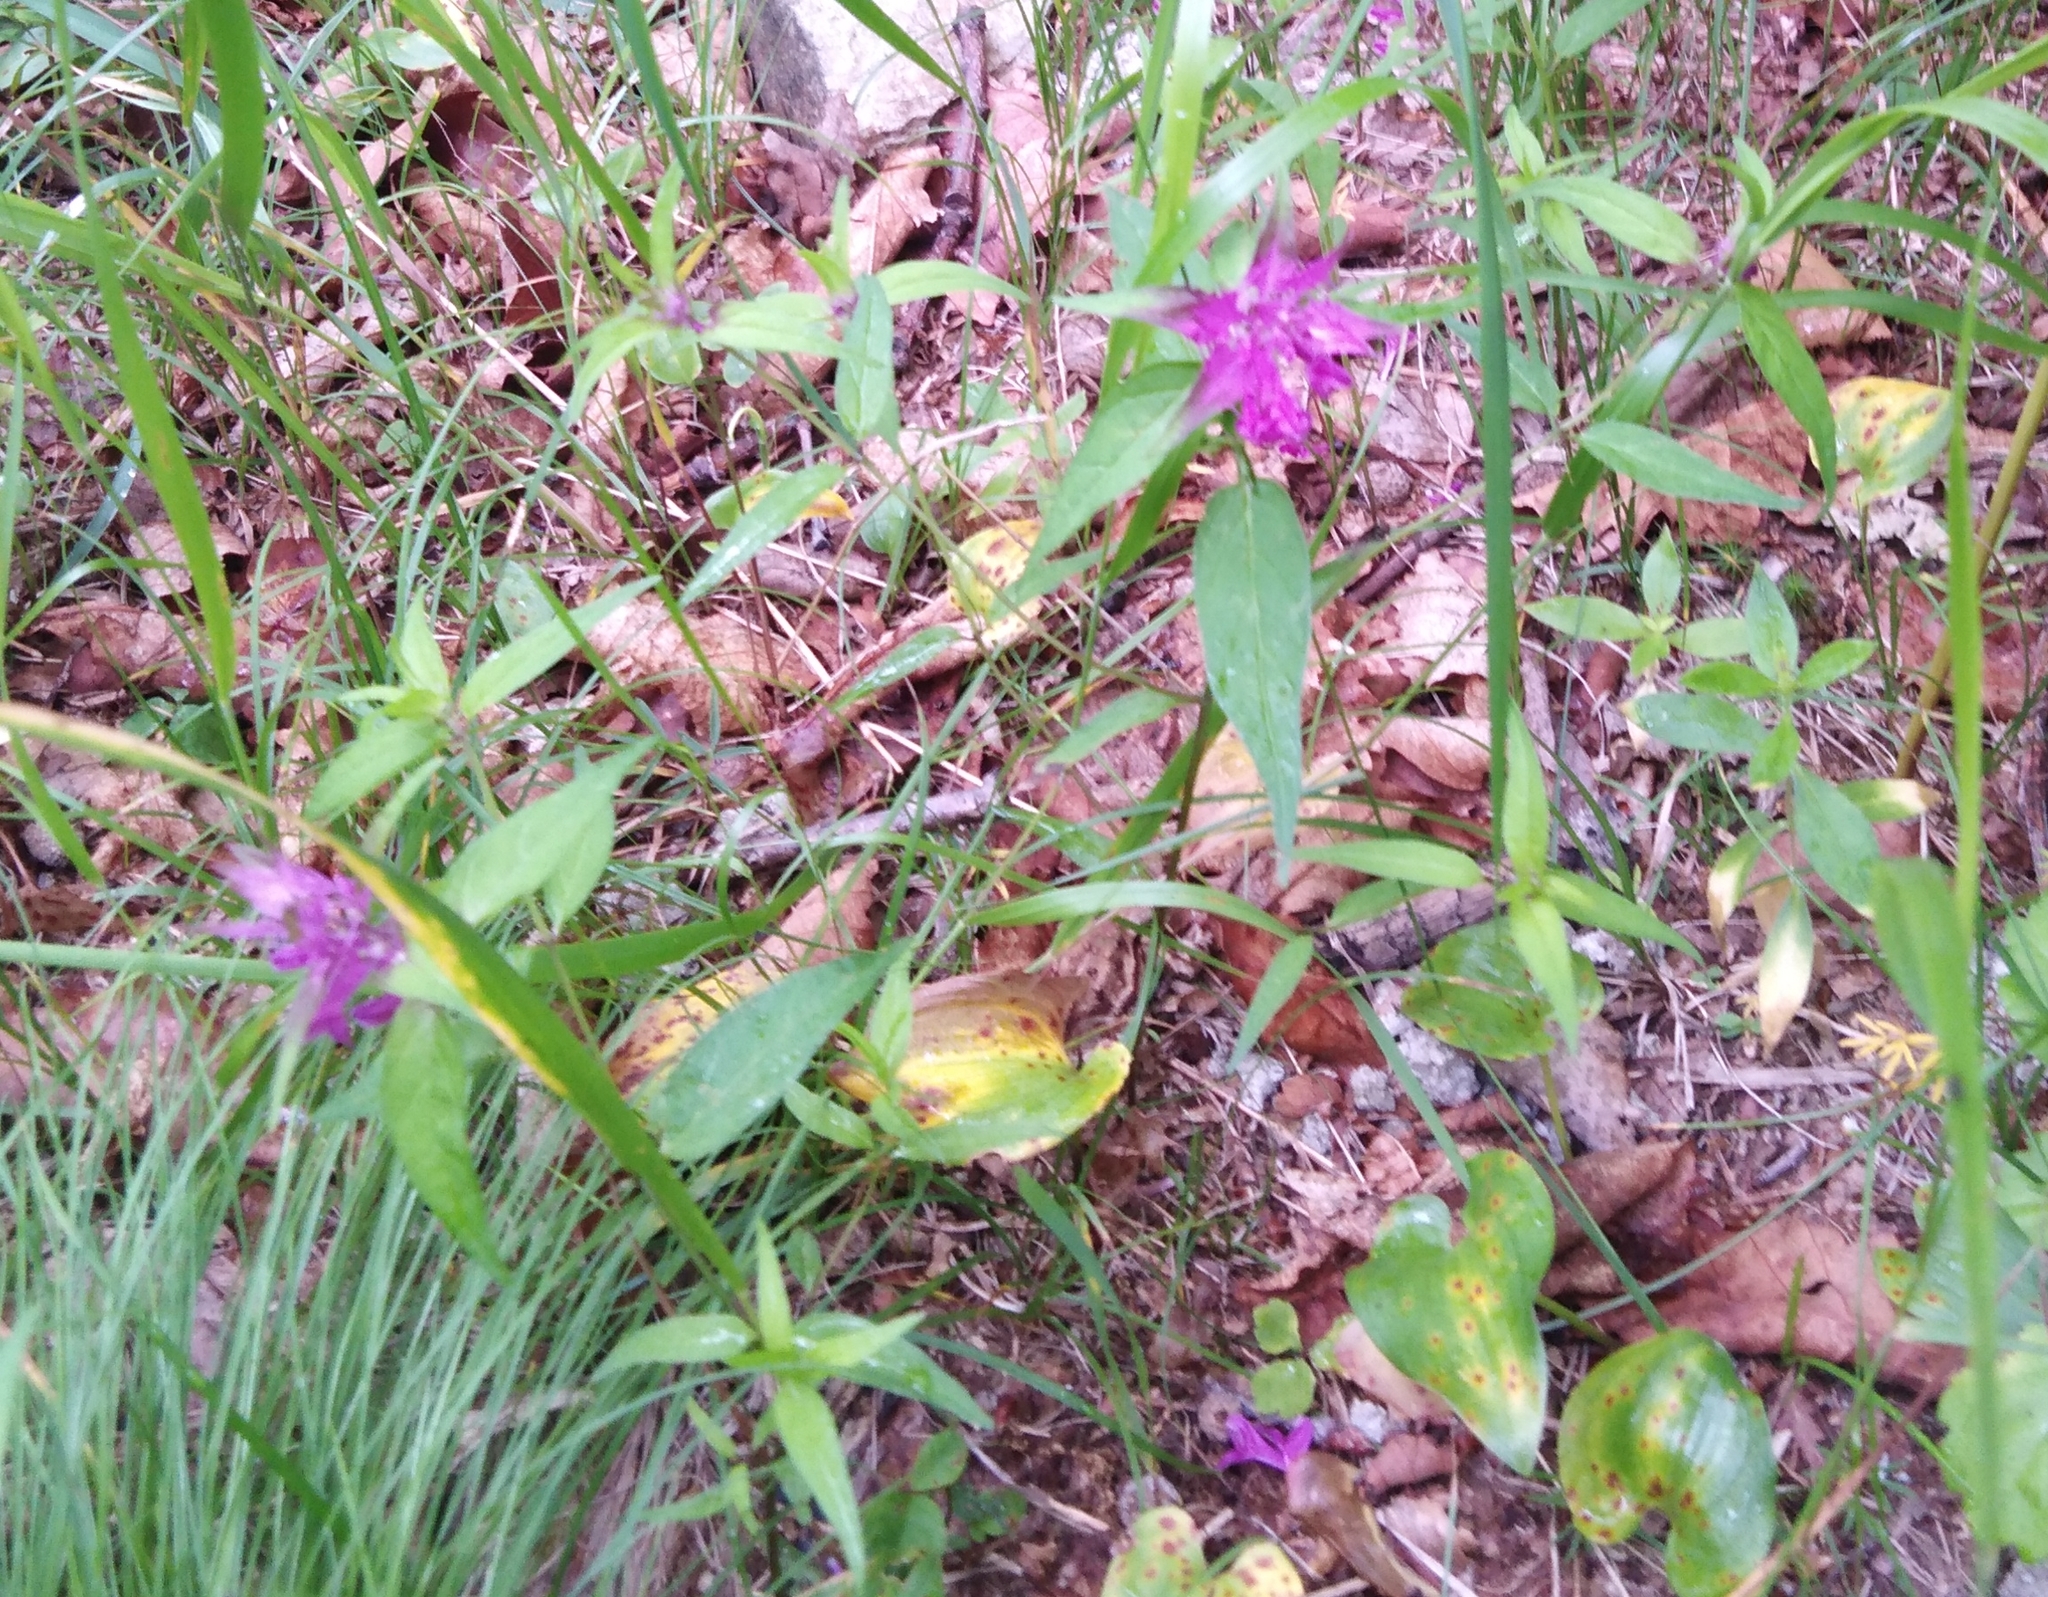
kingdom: Plantae
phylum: Tracheophyta
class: Magnoliopsida
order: Lamiales
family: Orobanchaceae
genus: Melampyrum
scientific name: Melampyrum setaceum
